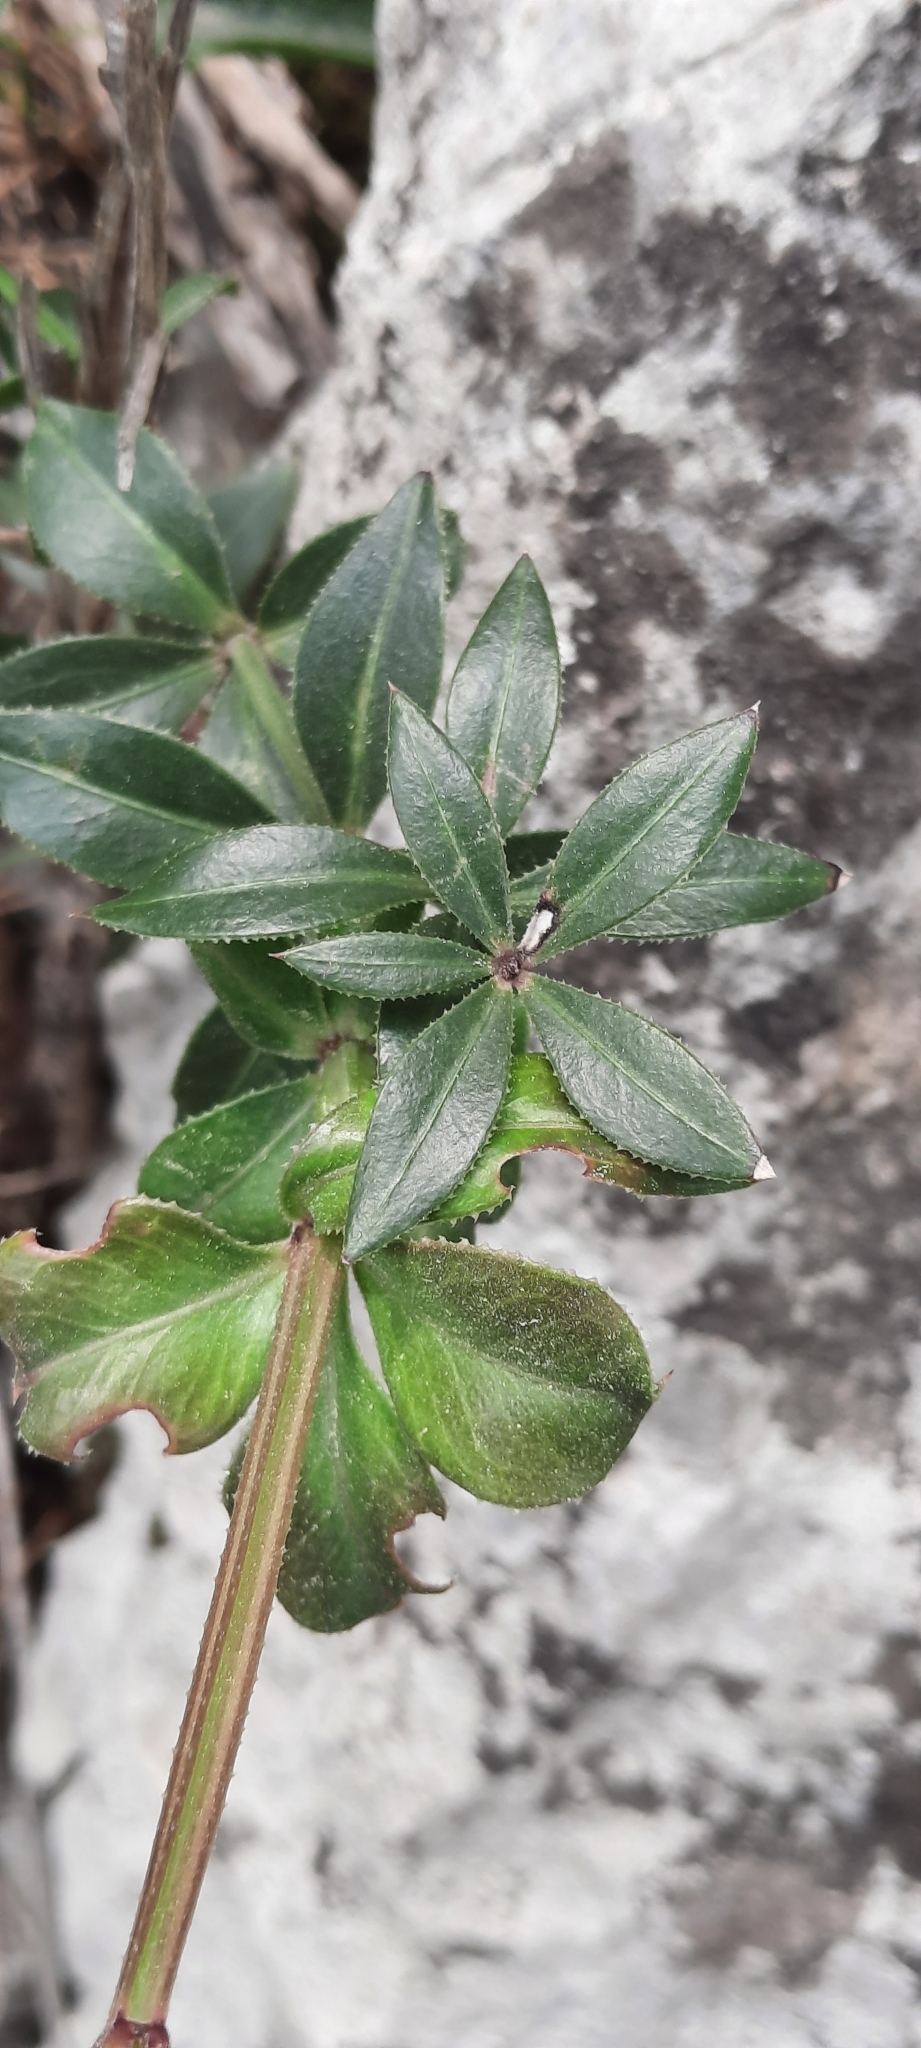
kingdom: Plantae
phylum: Tracheophyta
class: Magnoliopsida
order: Gentianales
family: Rubiaceae
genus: Rubia
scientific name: Rubia peregrina
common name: Wild madder
